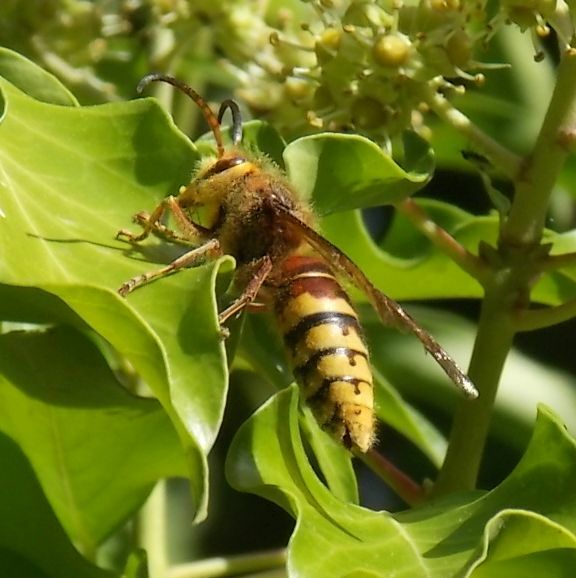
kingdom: Animalia
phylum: Arthropoda
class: Insecta
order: Hymenoptera
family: Vespidae
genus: Vespa
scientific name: Vespa crabro
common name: Hornet
